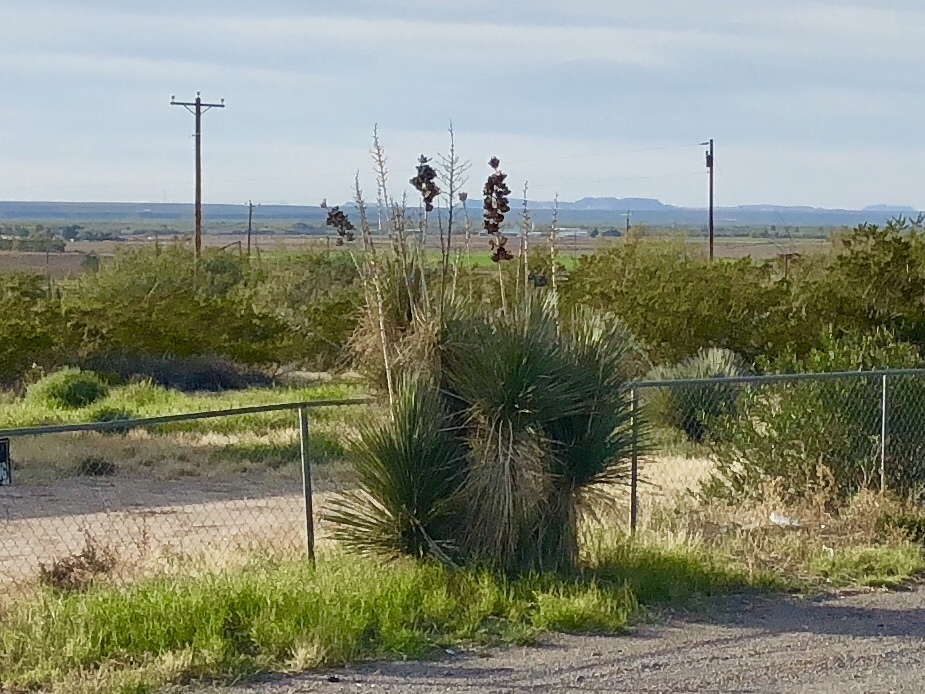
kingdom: Plantae
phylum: Tracheophyta
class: Liliopsida
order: Asparagales
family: Asparagaceae
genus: Yucca
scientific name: Yucca elata
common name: Palmella
